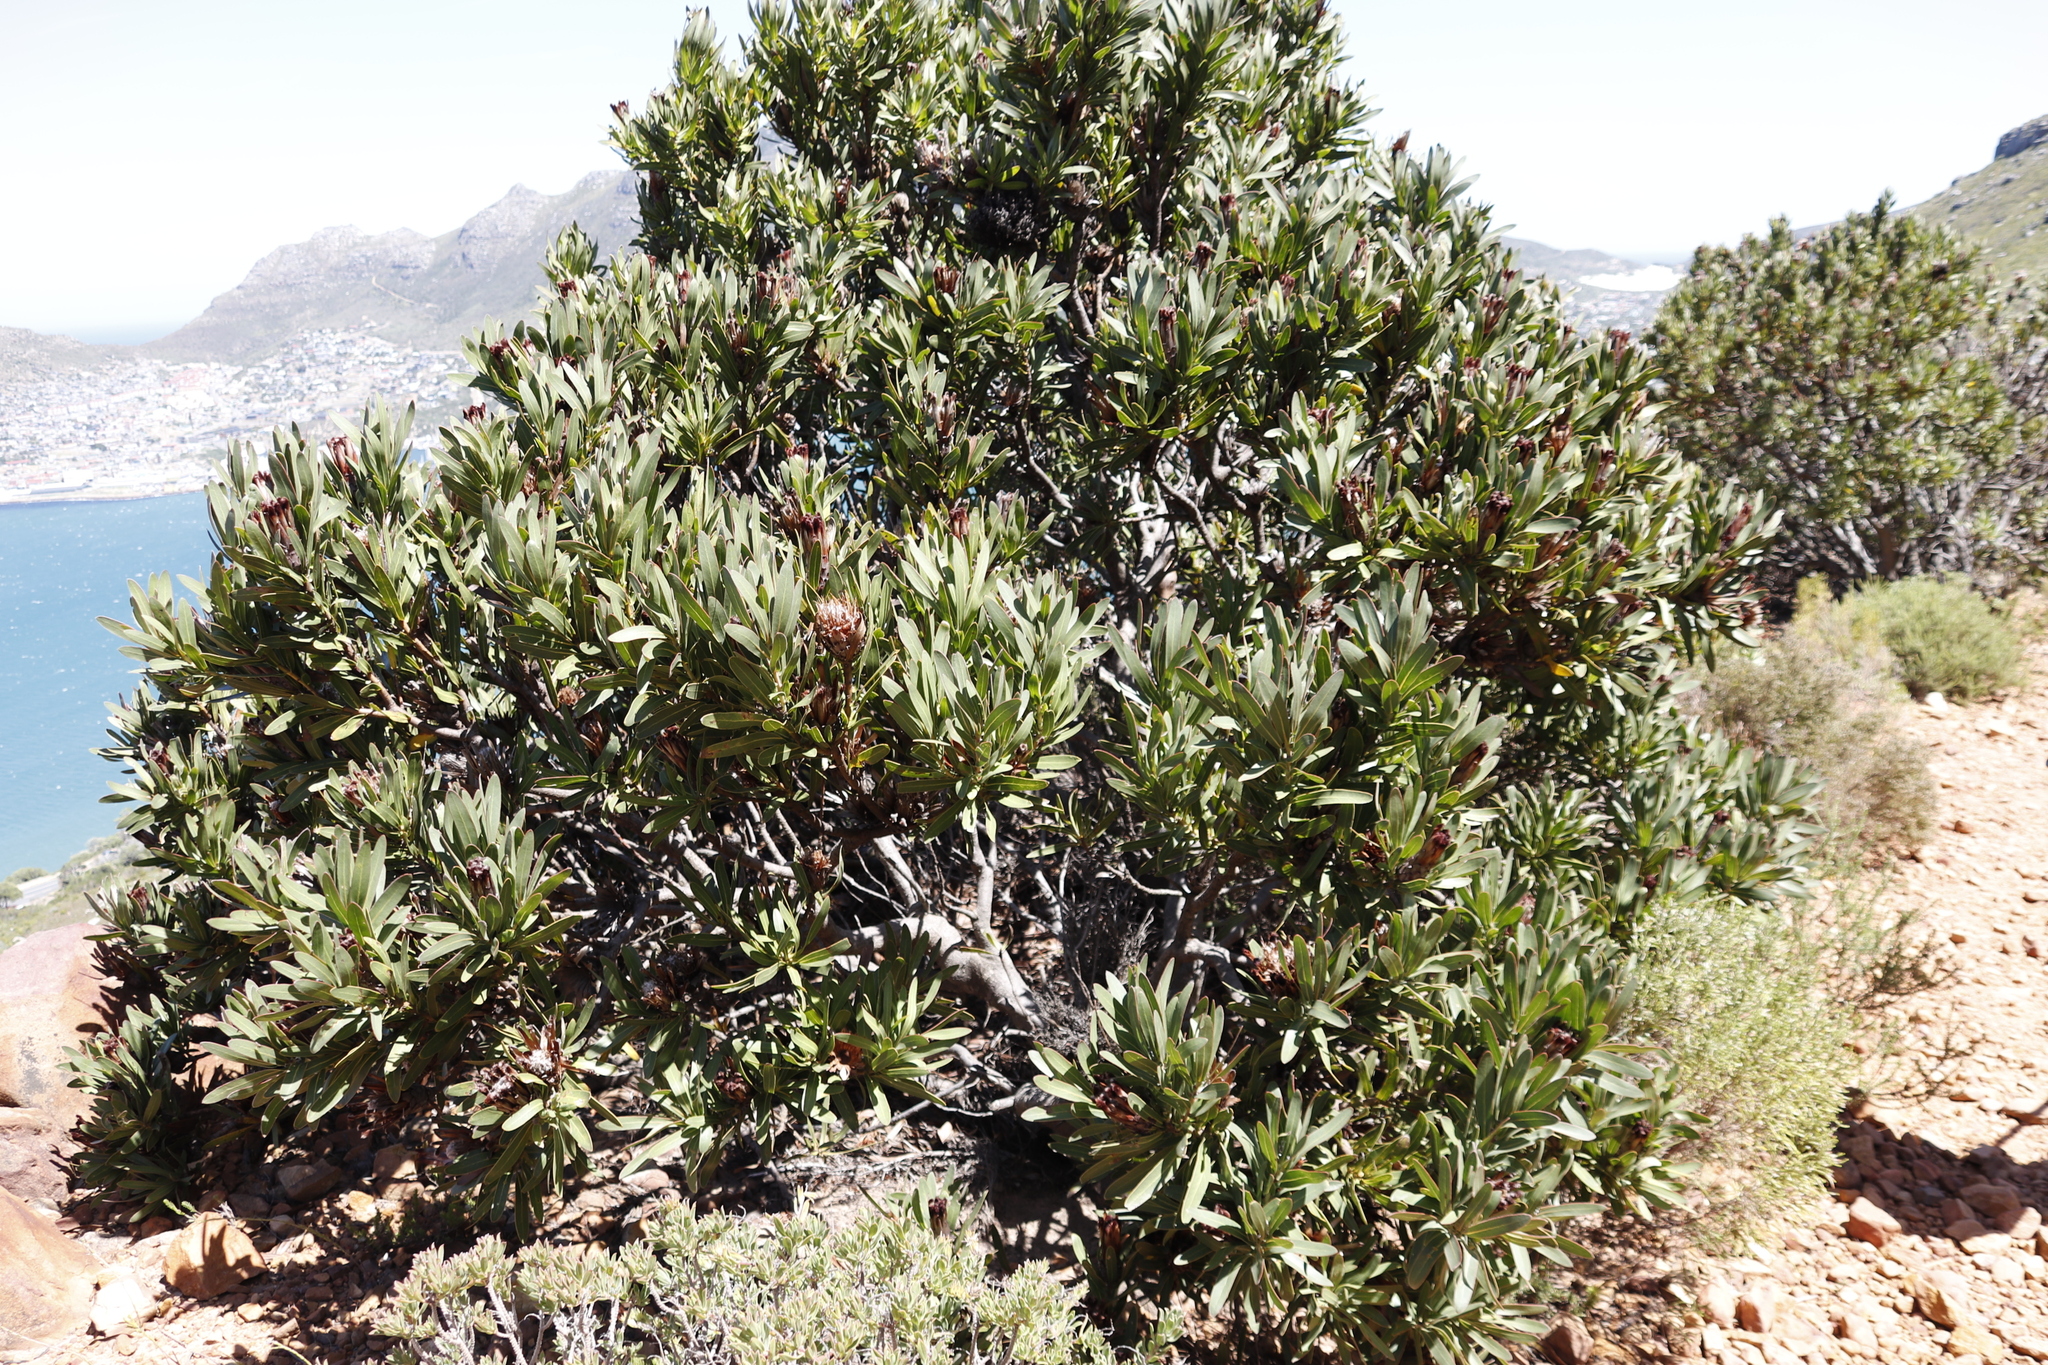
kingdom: Plantae
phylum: Tracheophyta
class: Magnoliopsida
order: Proteales
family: Proteaceae
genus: Protea
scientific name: Protea lepidocarpodendron
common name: Black-bearded protea
